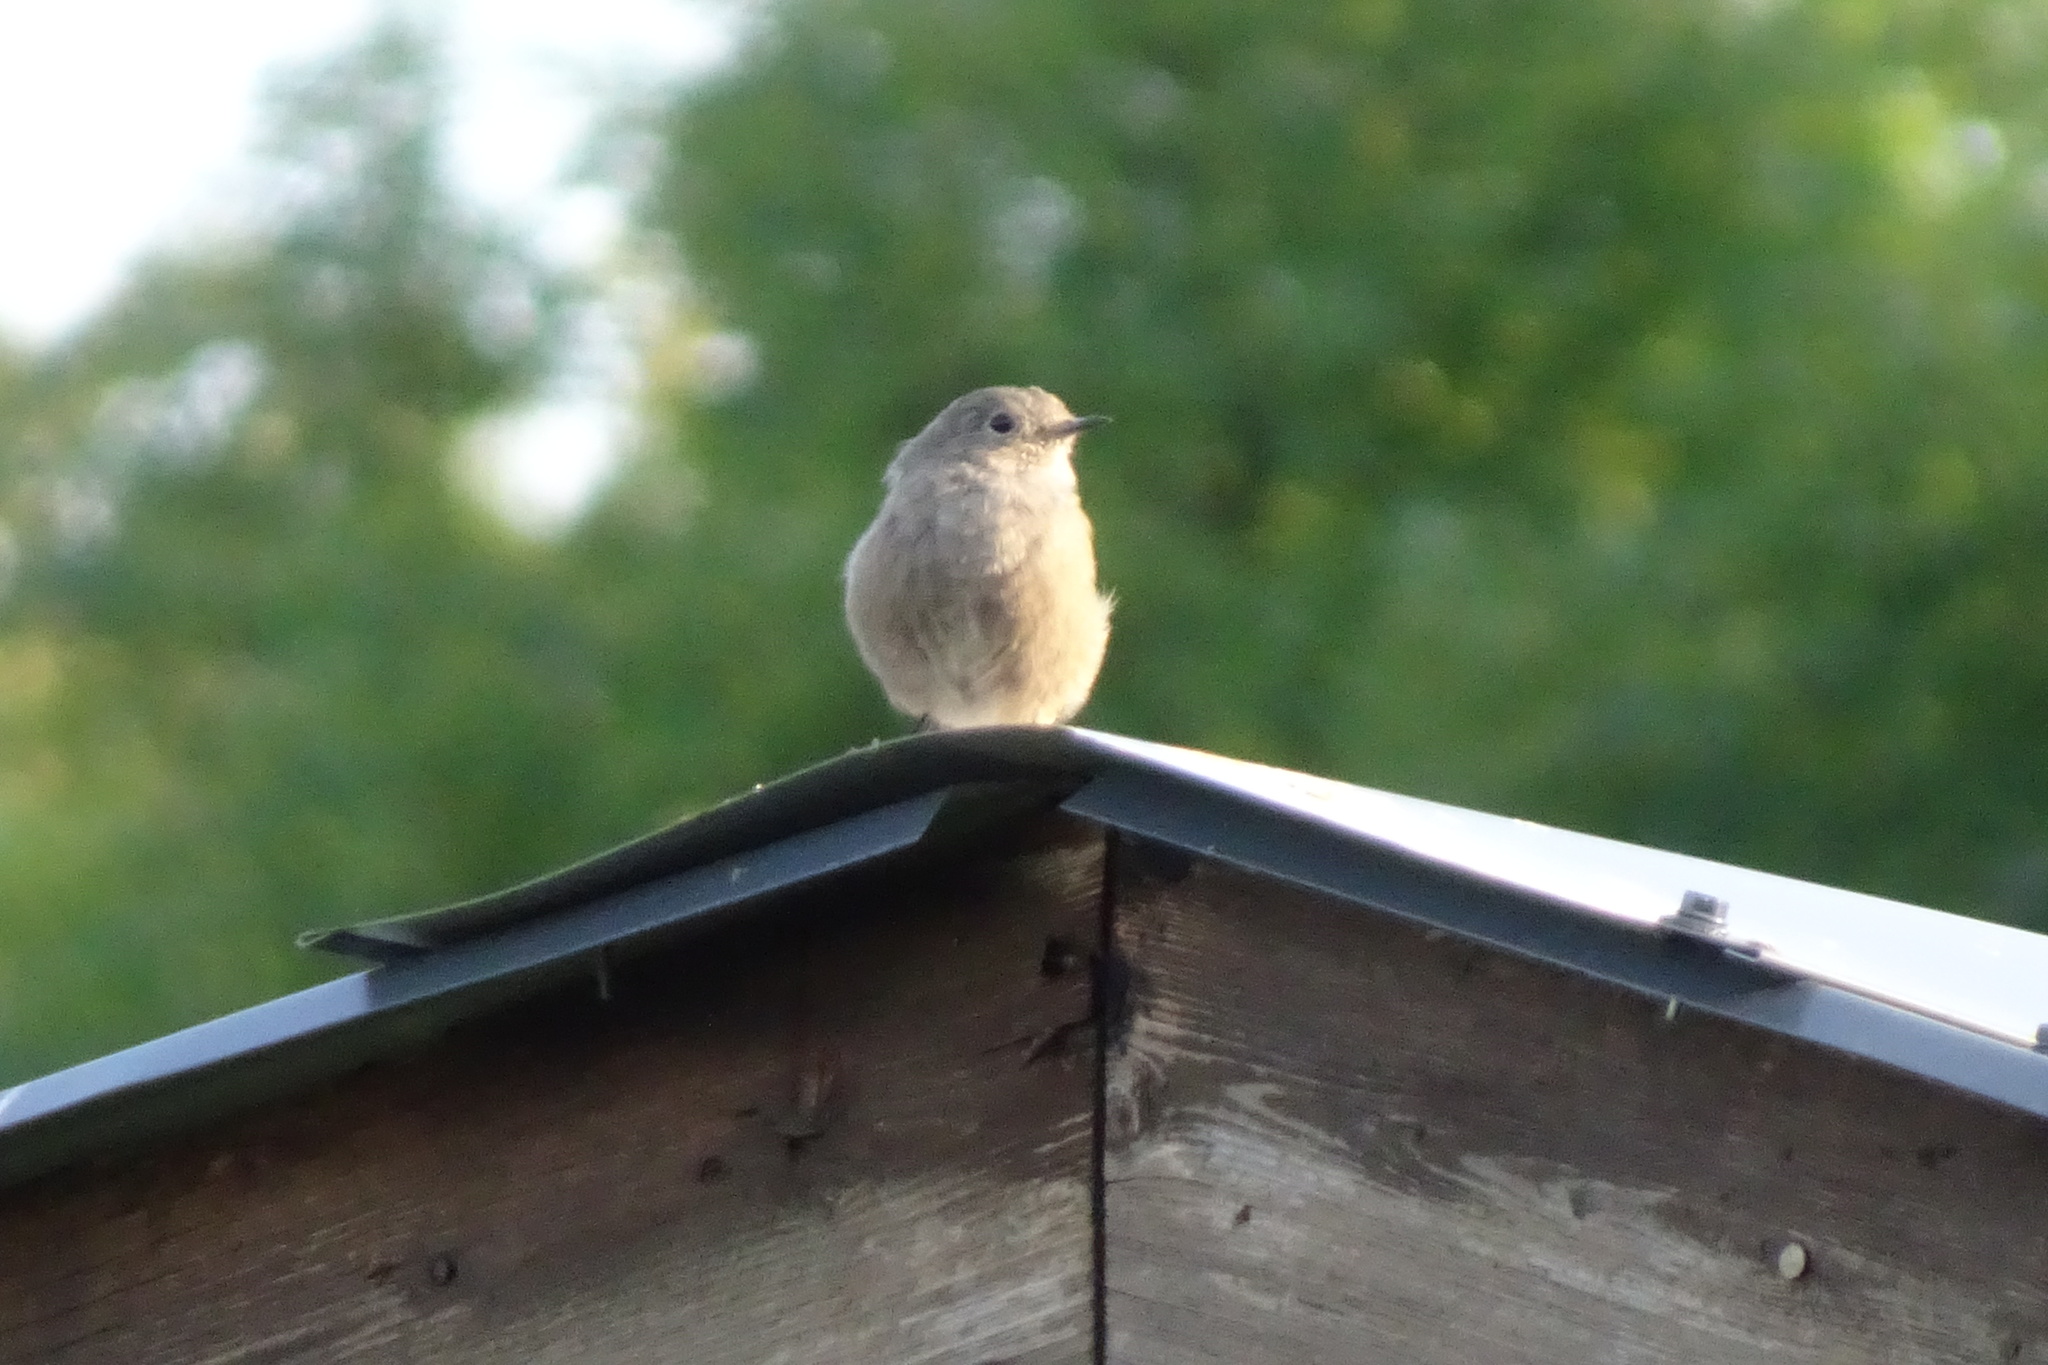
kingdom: Animalia
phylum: Chordata
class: Aves
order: Passeriformes
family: Muscicapidae
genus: Phoenicurus
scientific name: Phoenicurus ochruros
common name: Black redstart
